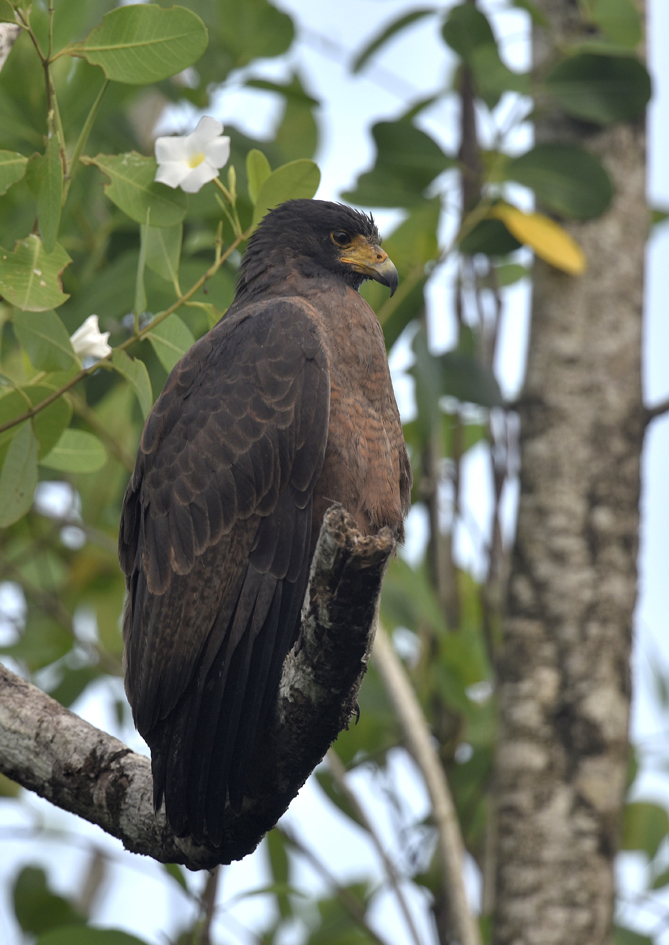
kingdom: Animalia
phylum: Chordata
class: Aves
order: Accipitriformes
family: Accipitridae
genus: Buteogallus
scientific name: Buteogallus aequinoctialis
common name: Rufous crab hawk
